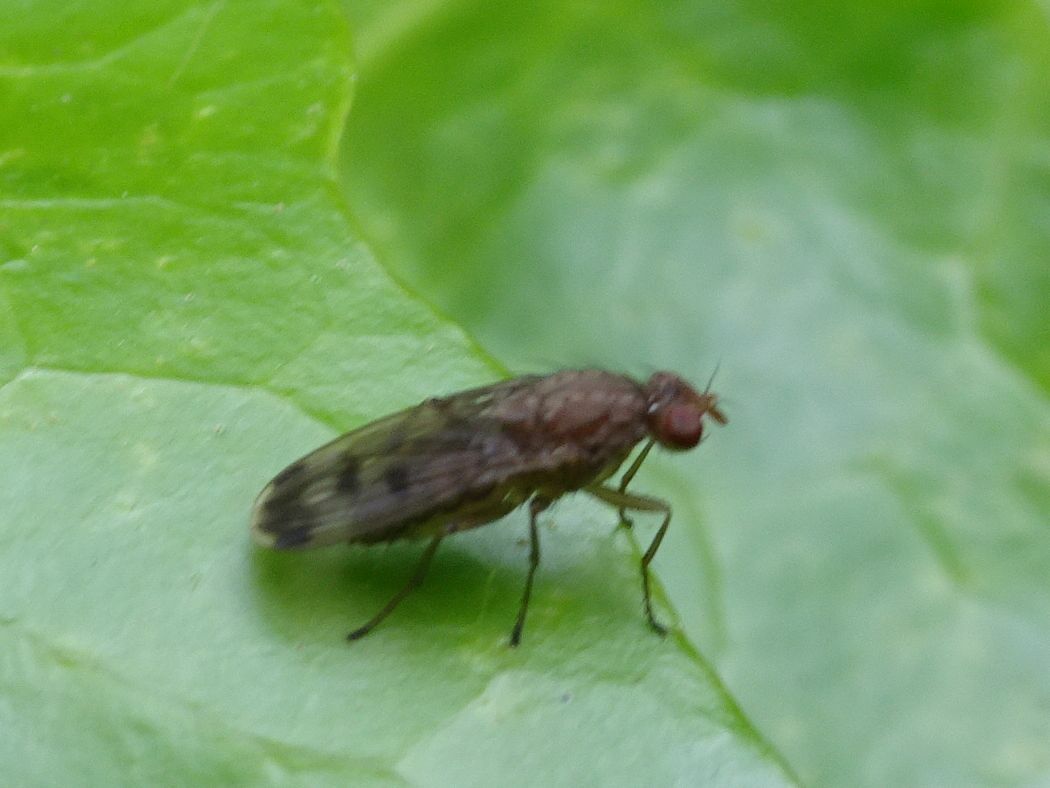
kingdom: Animalia
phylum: Arthropoda
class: Insecta
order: Diptera
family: Heleomyzidae
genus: Suillia
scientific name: Suillia variegata
